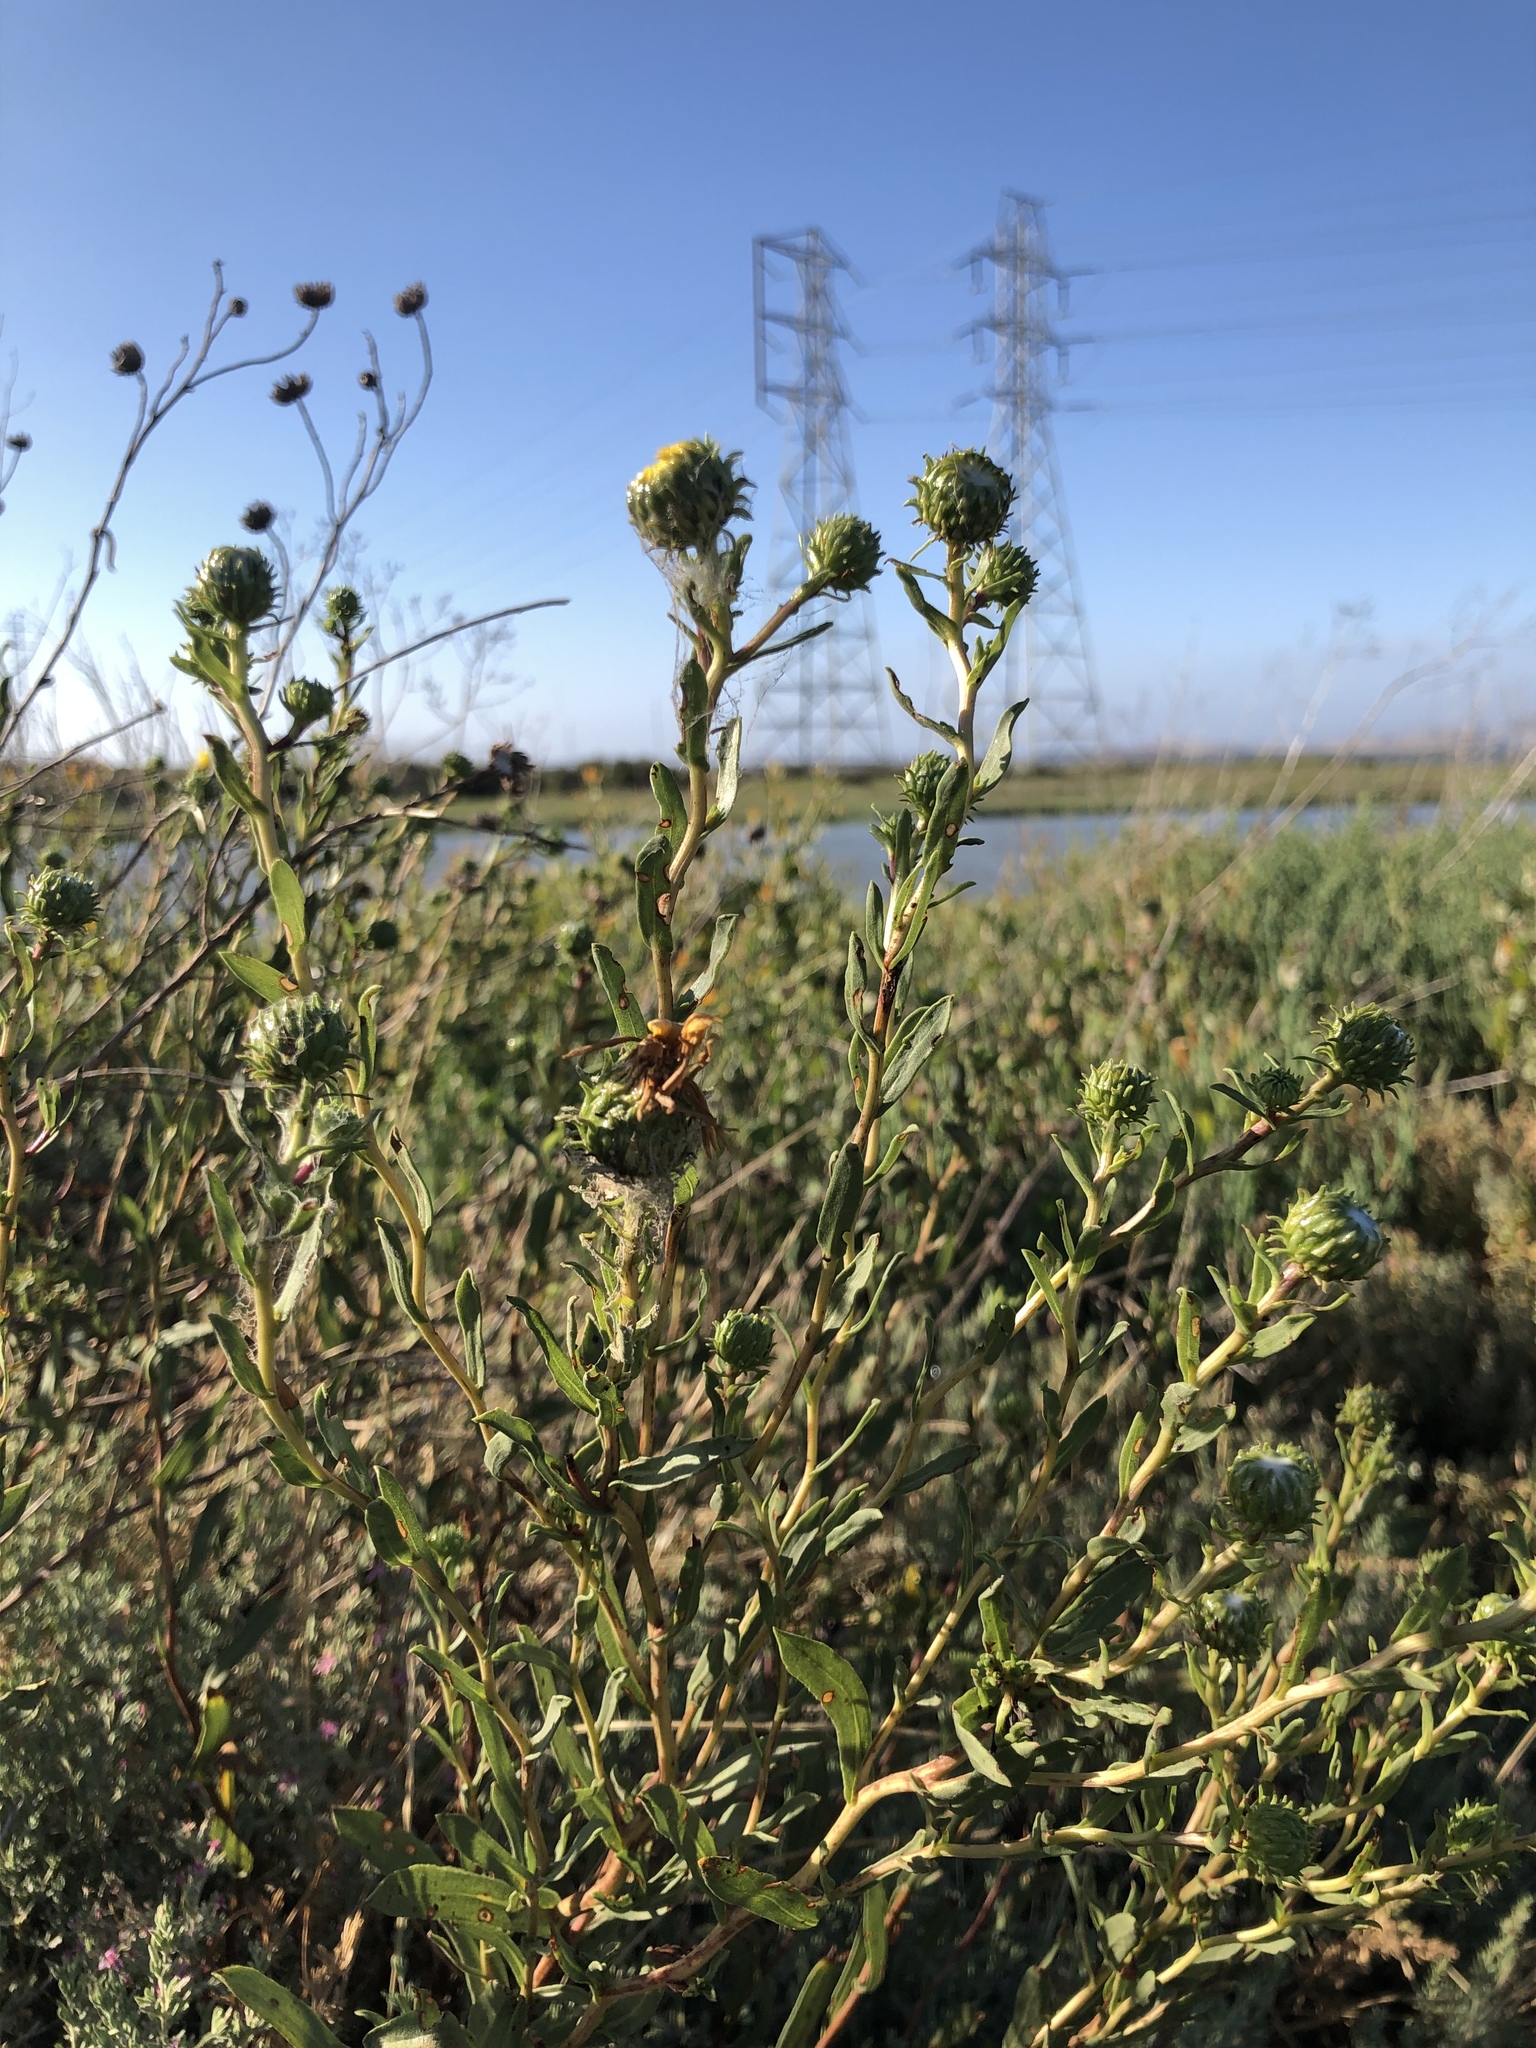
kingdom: Plantae
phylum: Tracheophyta
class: Magnoliopsida
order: Asterales
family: Asteraceae
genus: Grindelia
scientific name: Grindelia hirsutula
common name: Hairy gumweed
